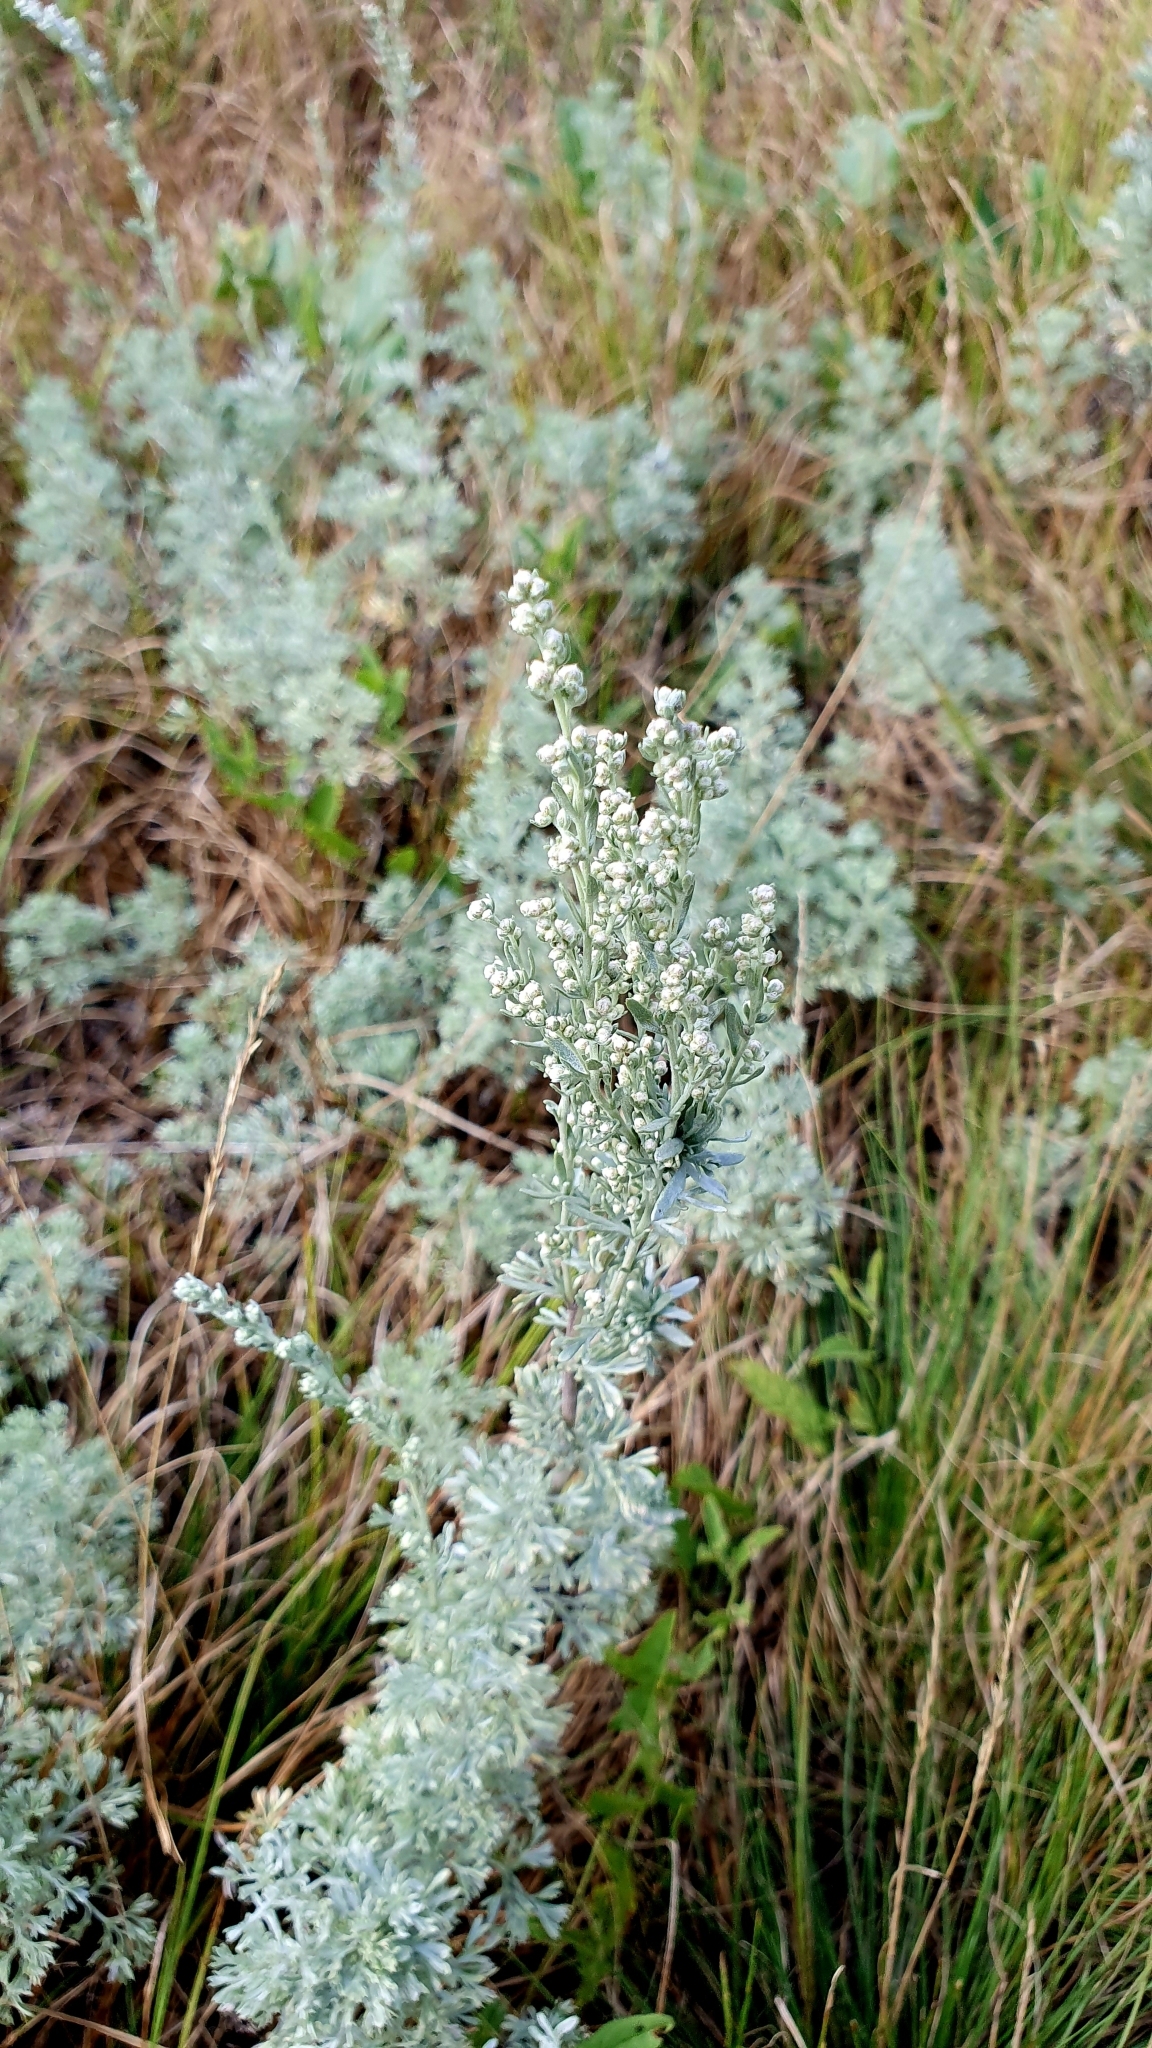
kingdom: Plantae
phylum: Tracheophyta
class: Magnoliopsida
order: Asterales
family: Asteraceae
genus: Artemisia
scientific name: Artemisia austriaca
